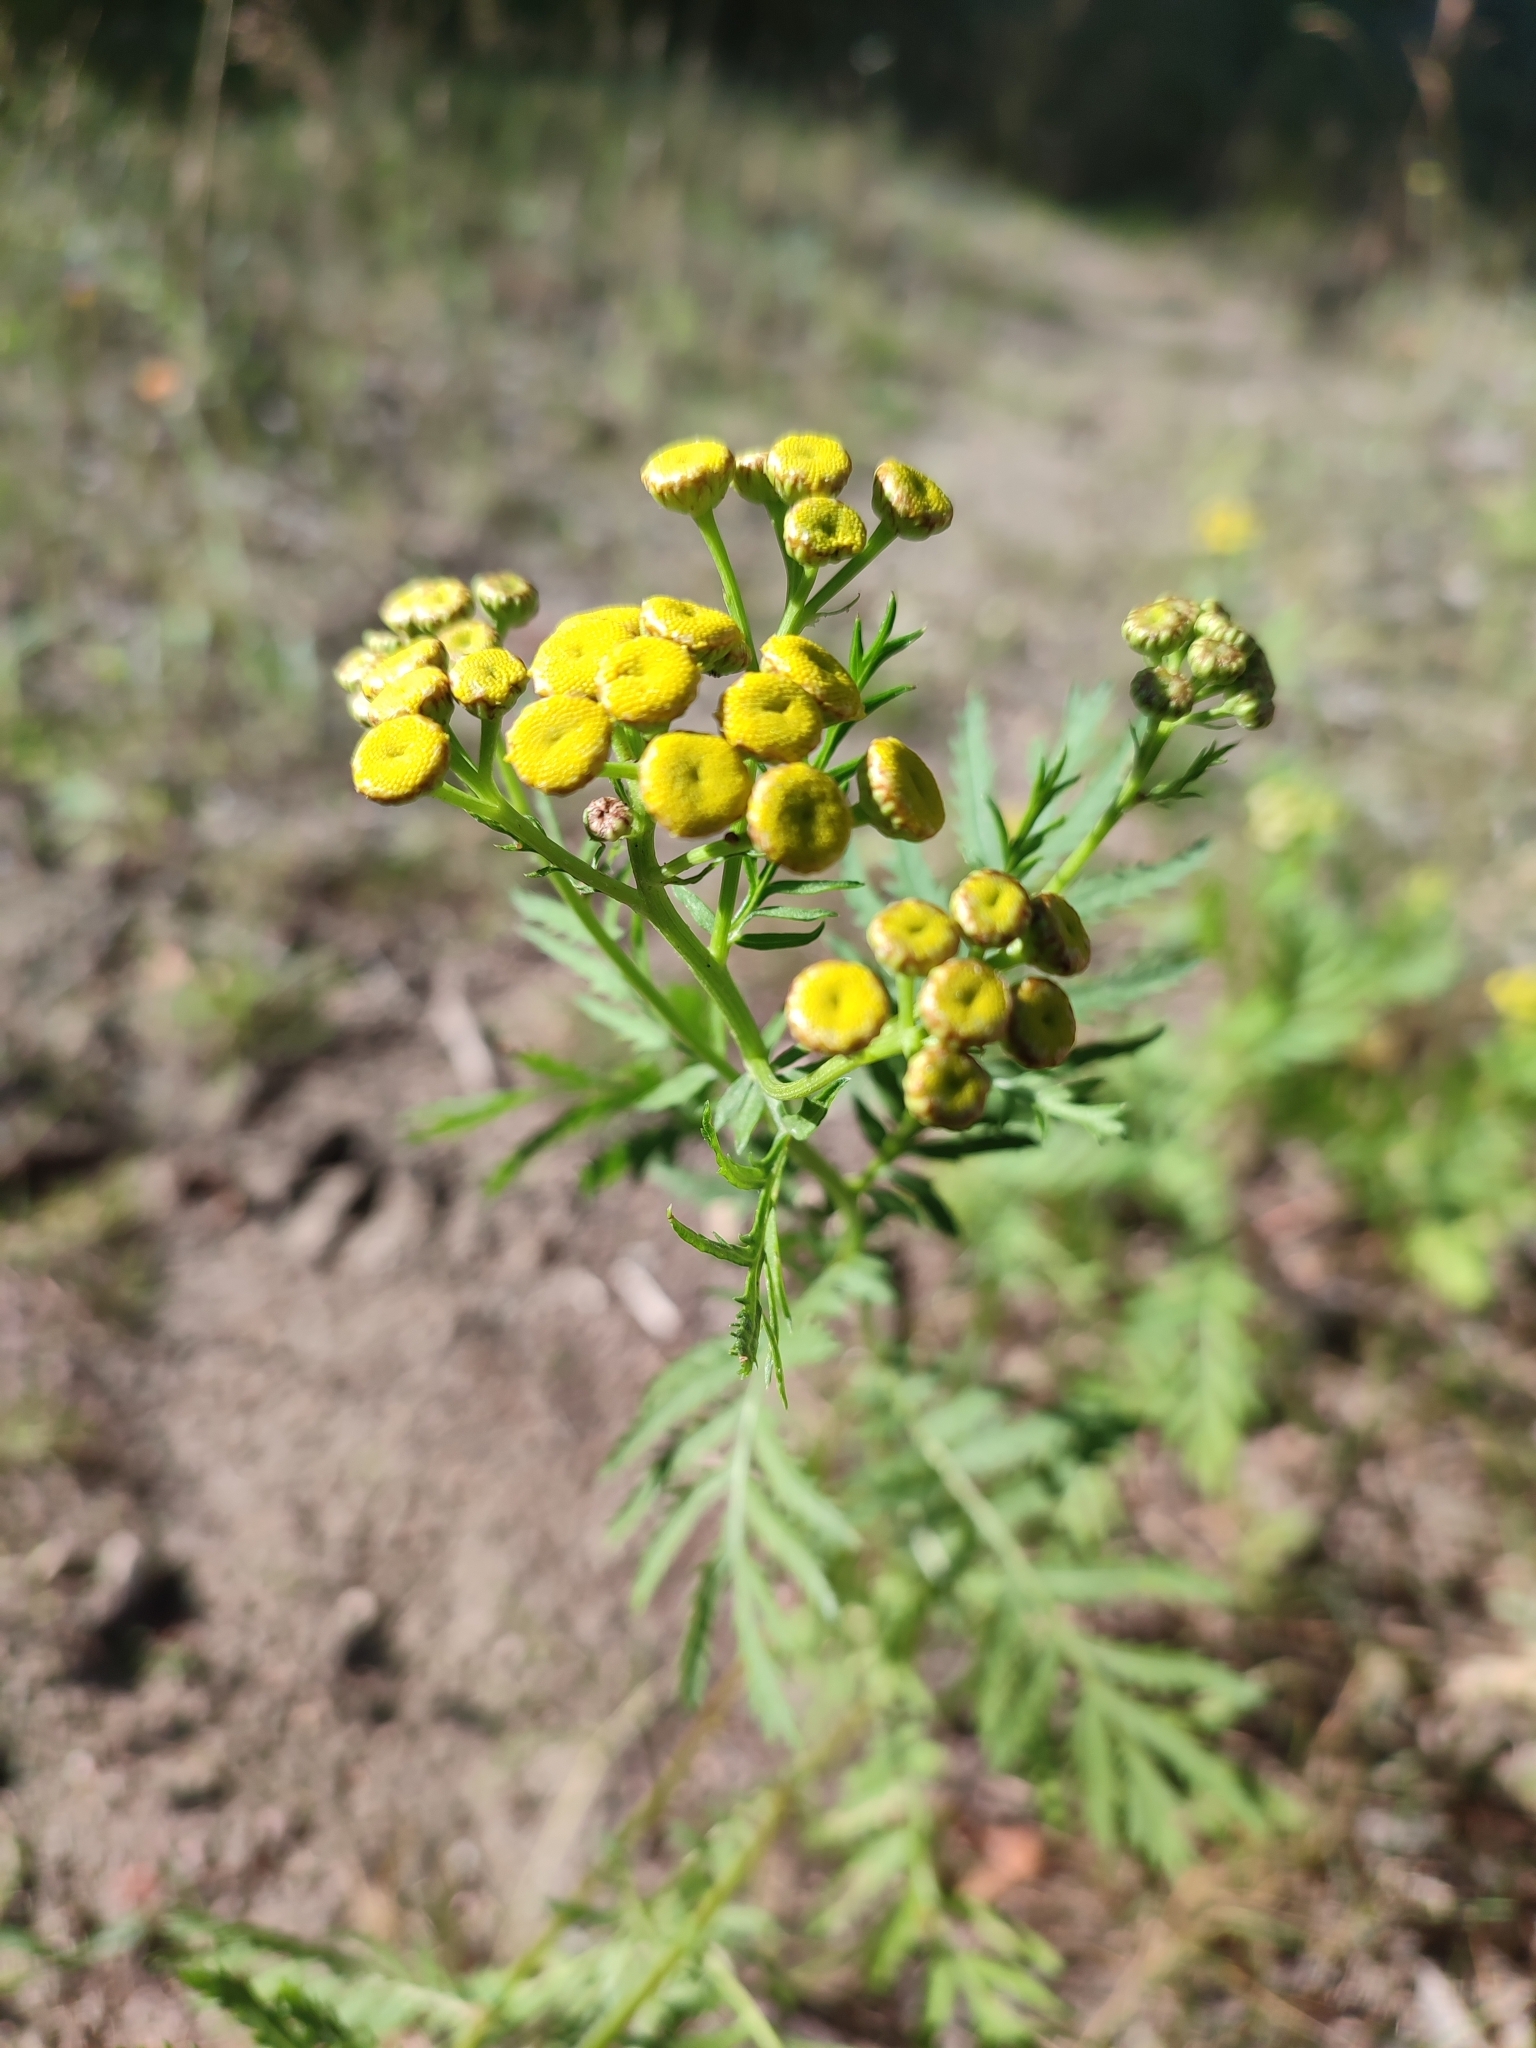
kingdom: Plantae
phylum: Tracheophyta
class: Magnoliopsida
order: Asterales
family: Asteraceae
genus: Tanacetum
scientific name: Tanacetum vulgare
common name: Common tansy
